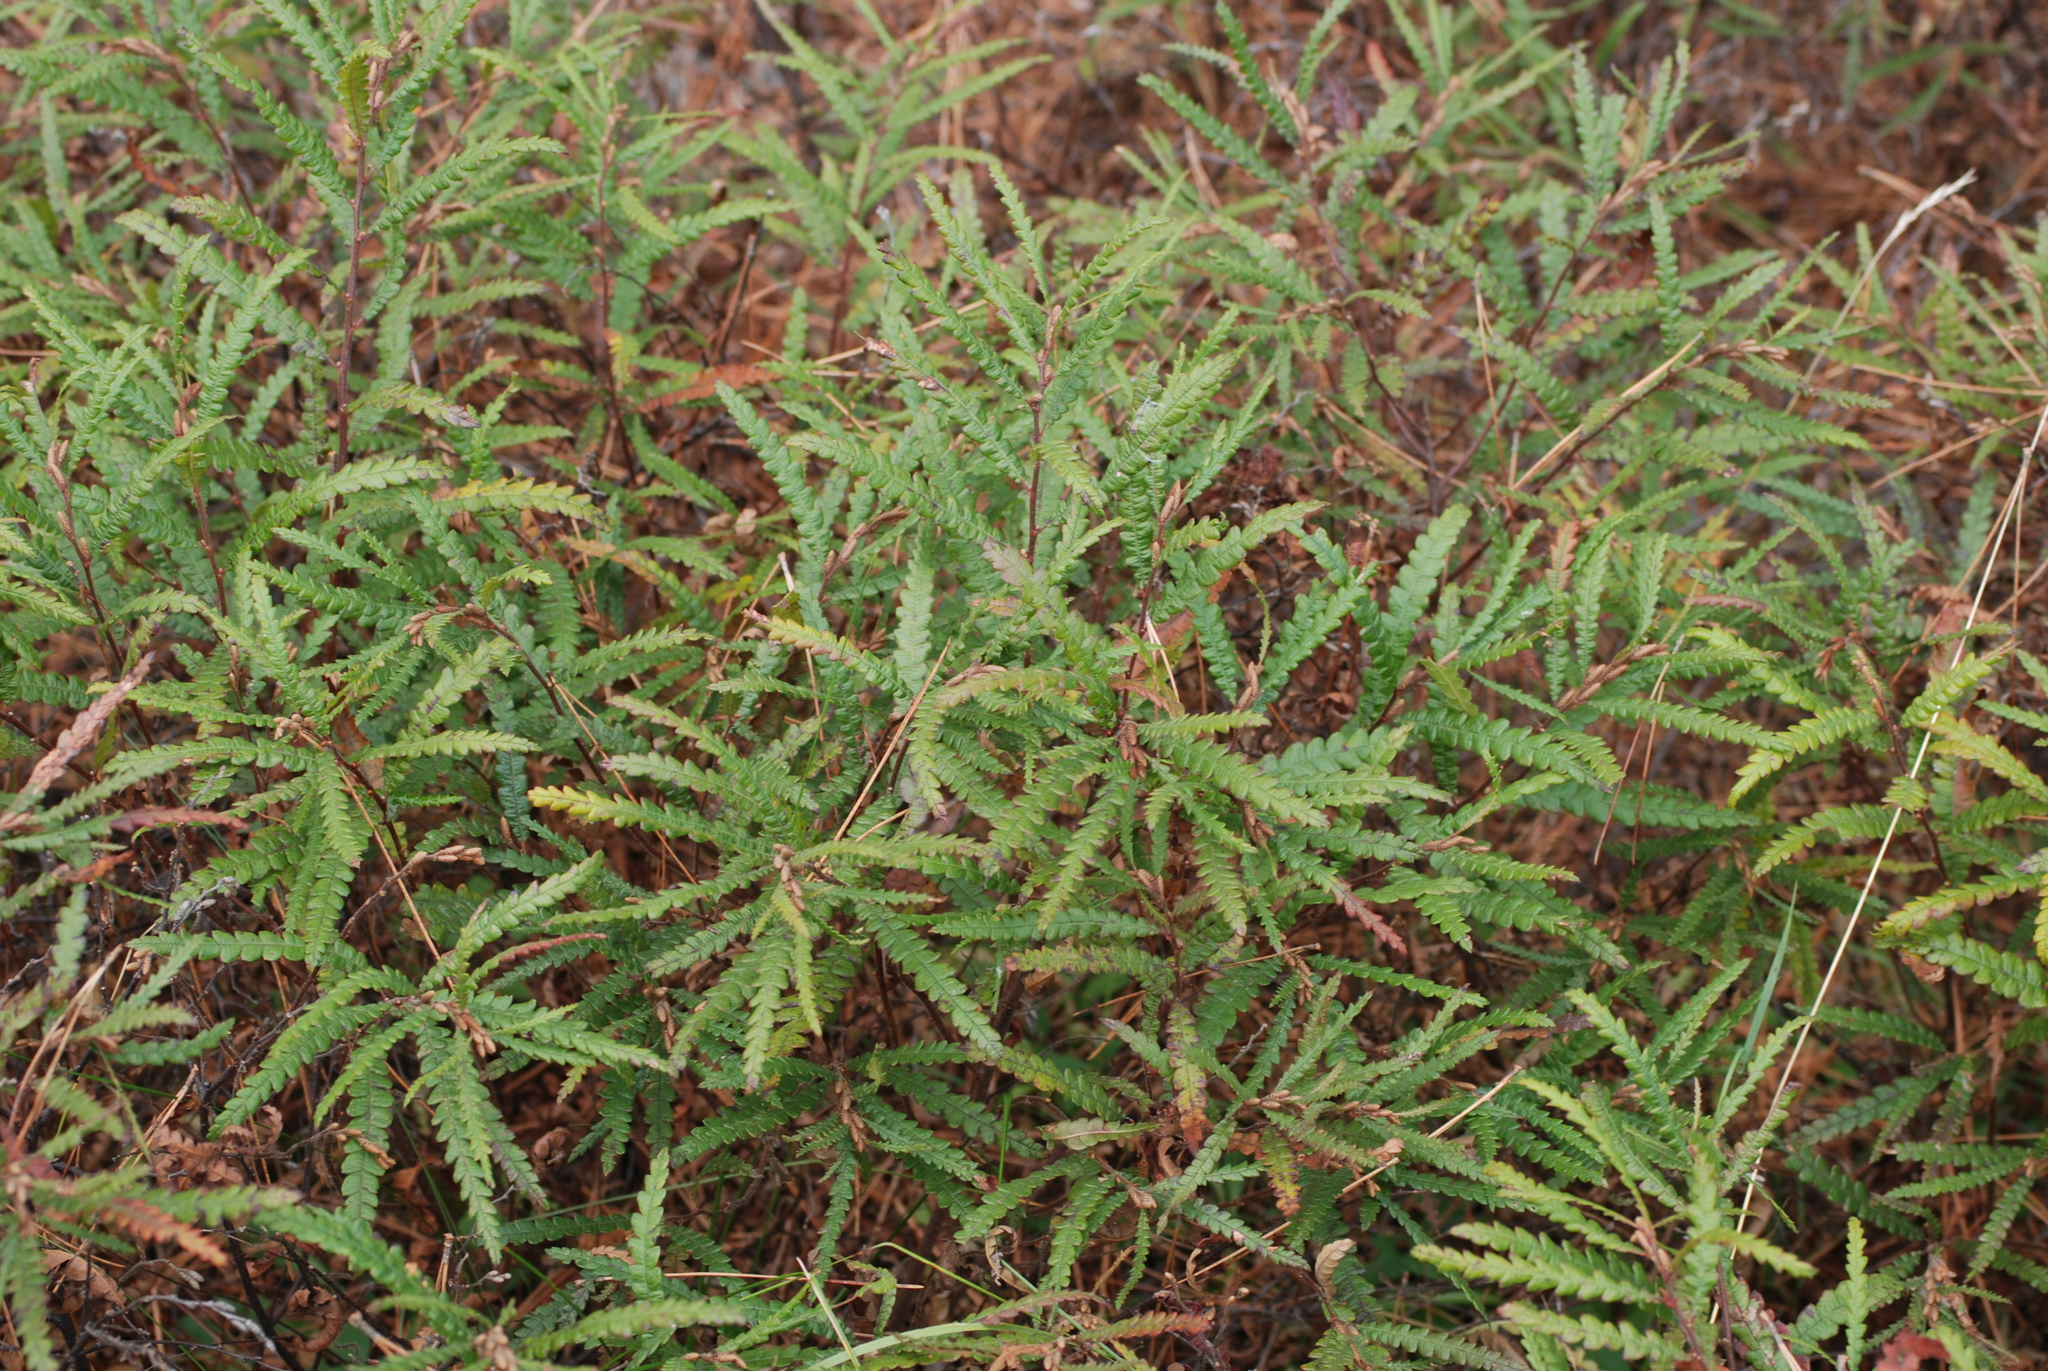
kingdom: Plantae
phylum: Tracheophyta
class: Magnoliopsida
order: Fagales
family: Myricaceae
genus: Comptonia
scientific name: Comptonia peregrina
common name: Sweet-fern
